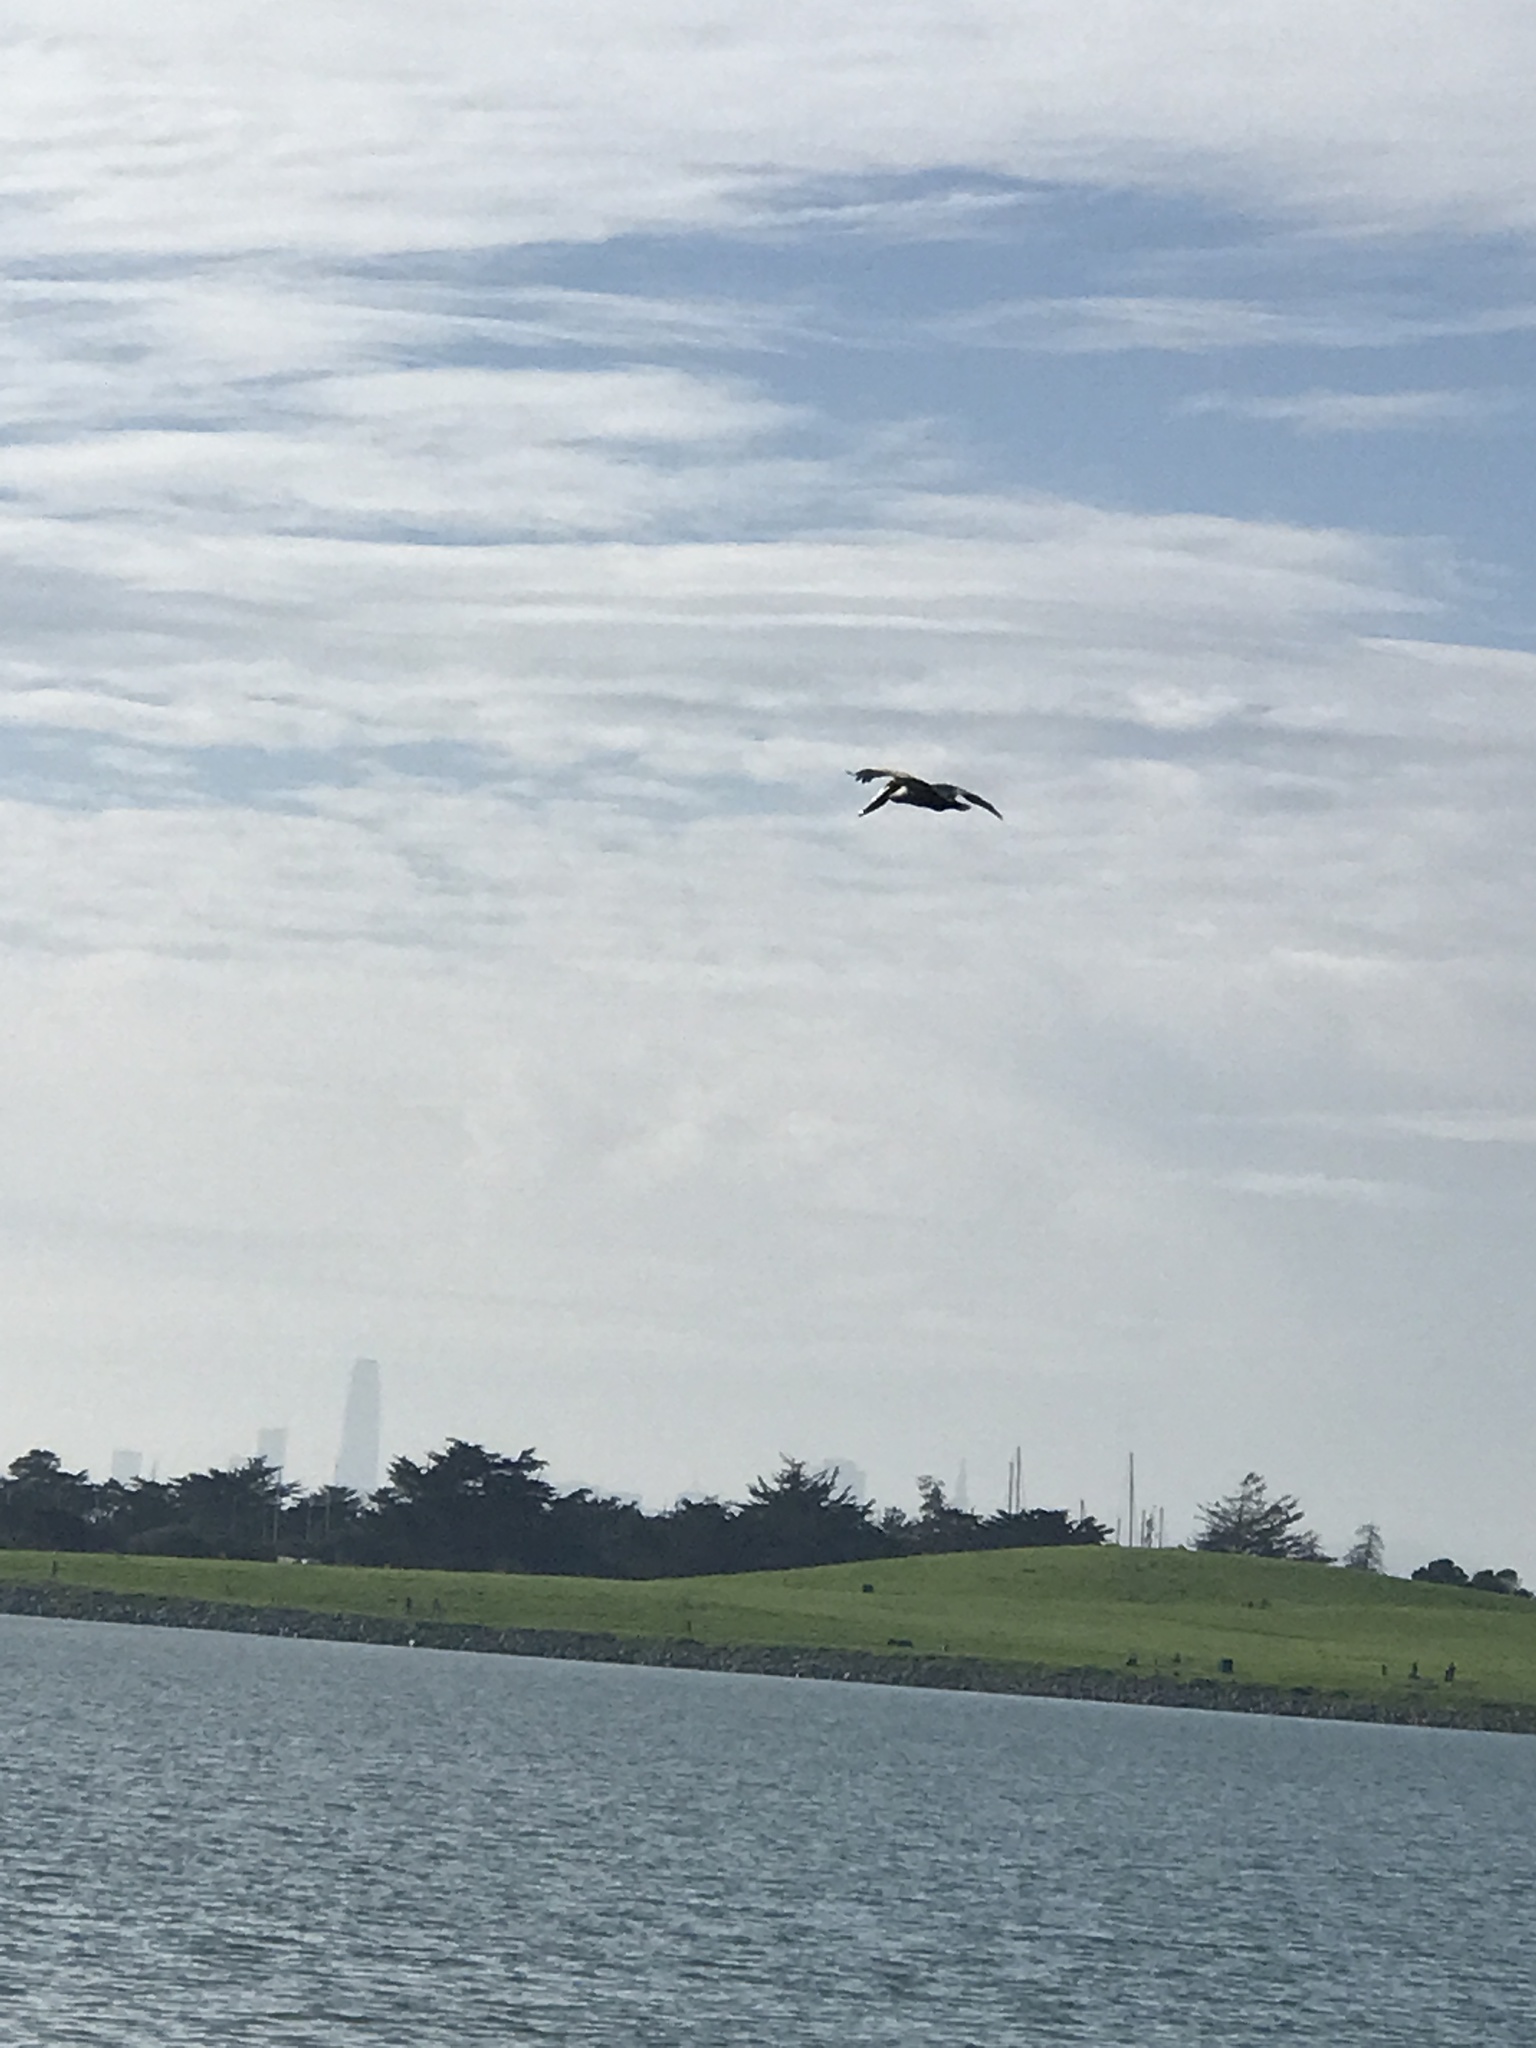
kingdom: Animalia
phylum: Chordata
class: Aves
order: Pelecaniformes
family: Pelecanidae
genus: Pelecanus
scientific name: Pelecanus occidentalis
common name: Brown pelican
